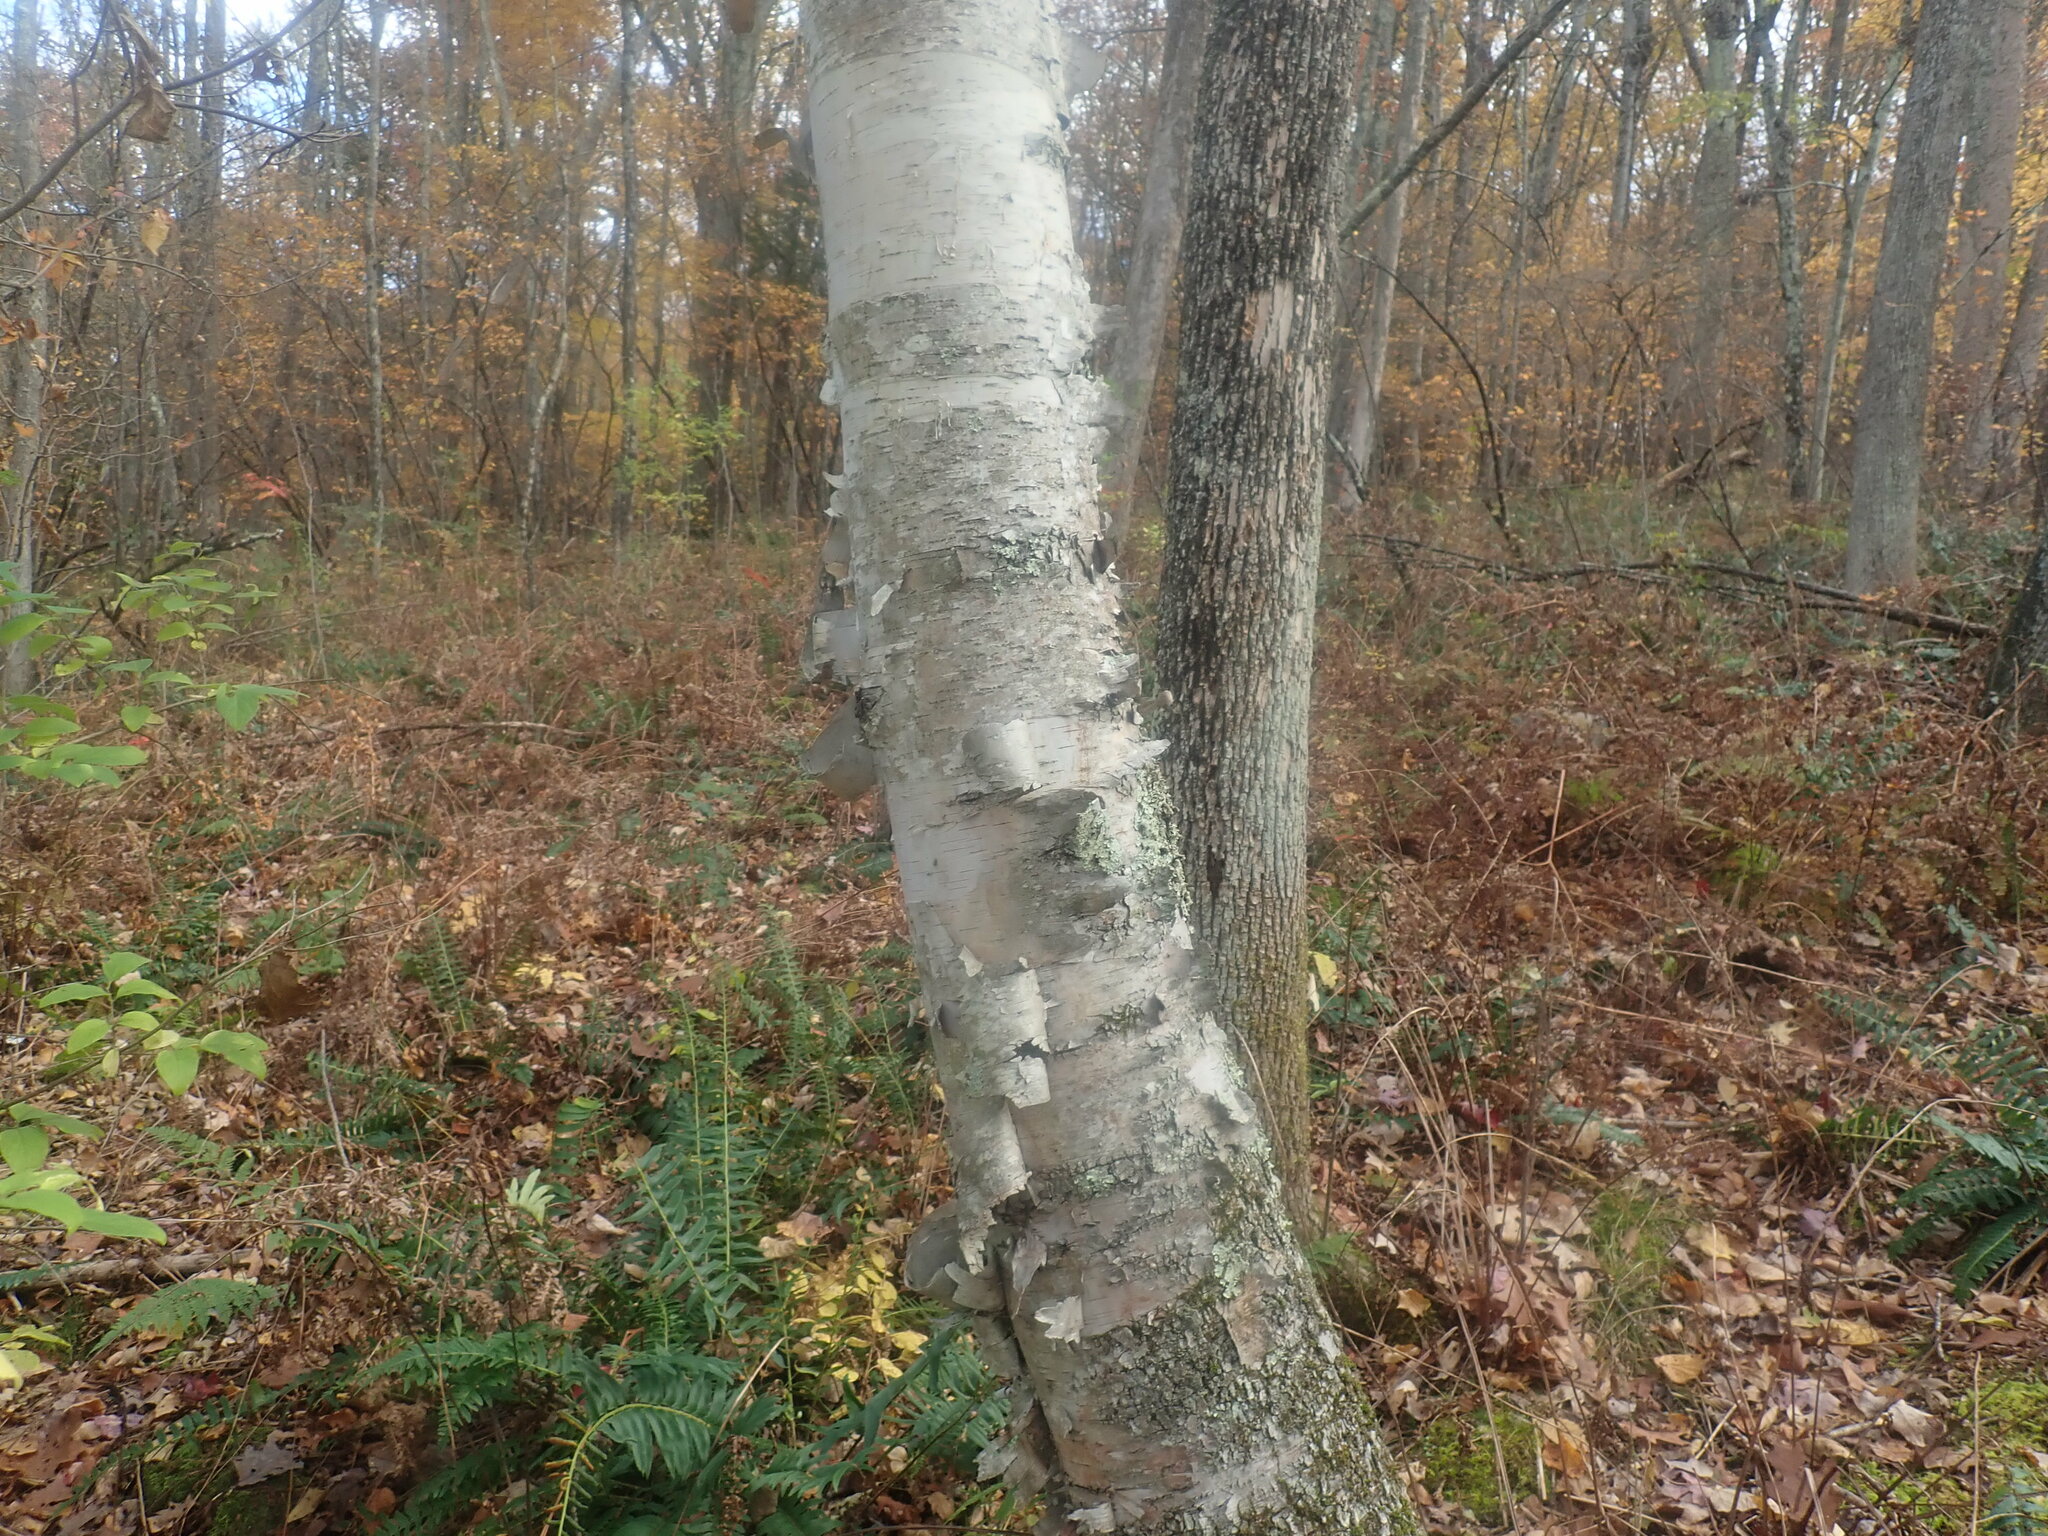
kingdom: Plantae
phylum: Tracheophyta
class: Magnoliopsida
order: Fagales
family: Betulaceae
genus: Betula
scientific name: Betula papyrifera
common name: Paper birch
